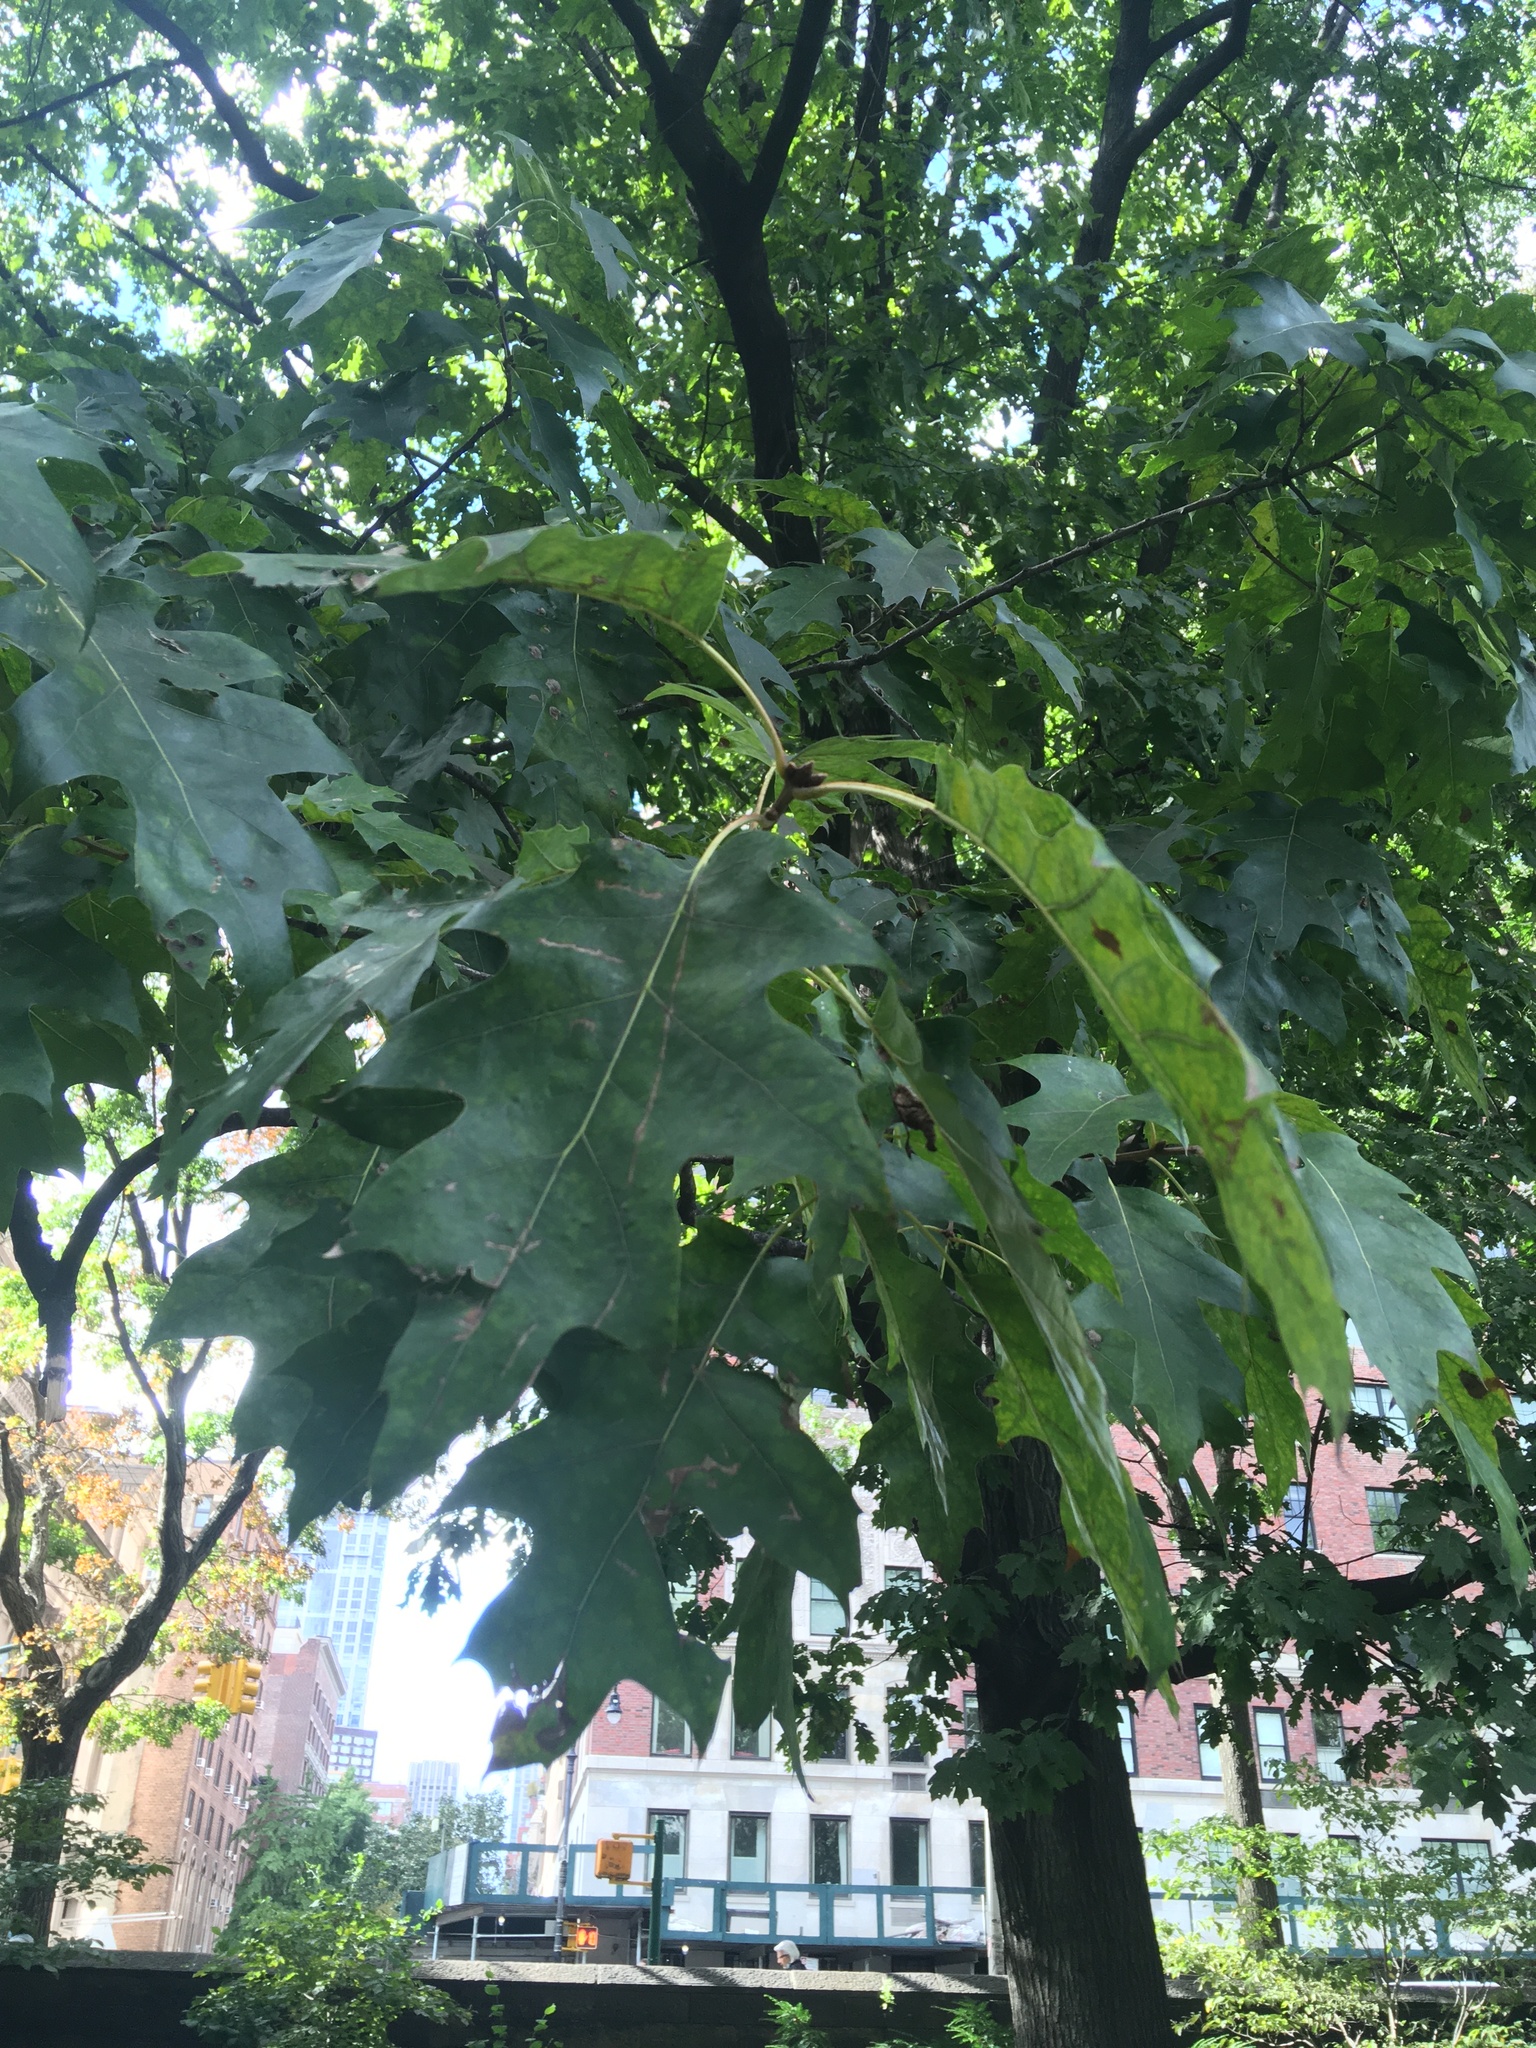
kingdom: Plantae
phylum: Tracheophyta
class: Magnoliopsida
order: Fagales
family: Fagaceae
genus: Quercus
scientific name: Quercus rubra
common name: Red oak
